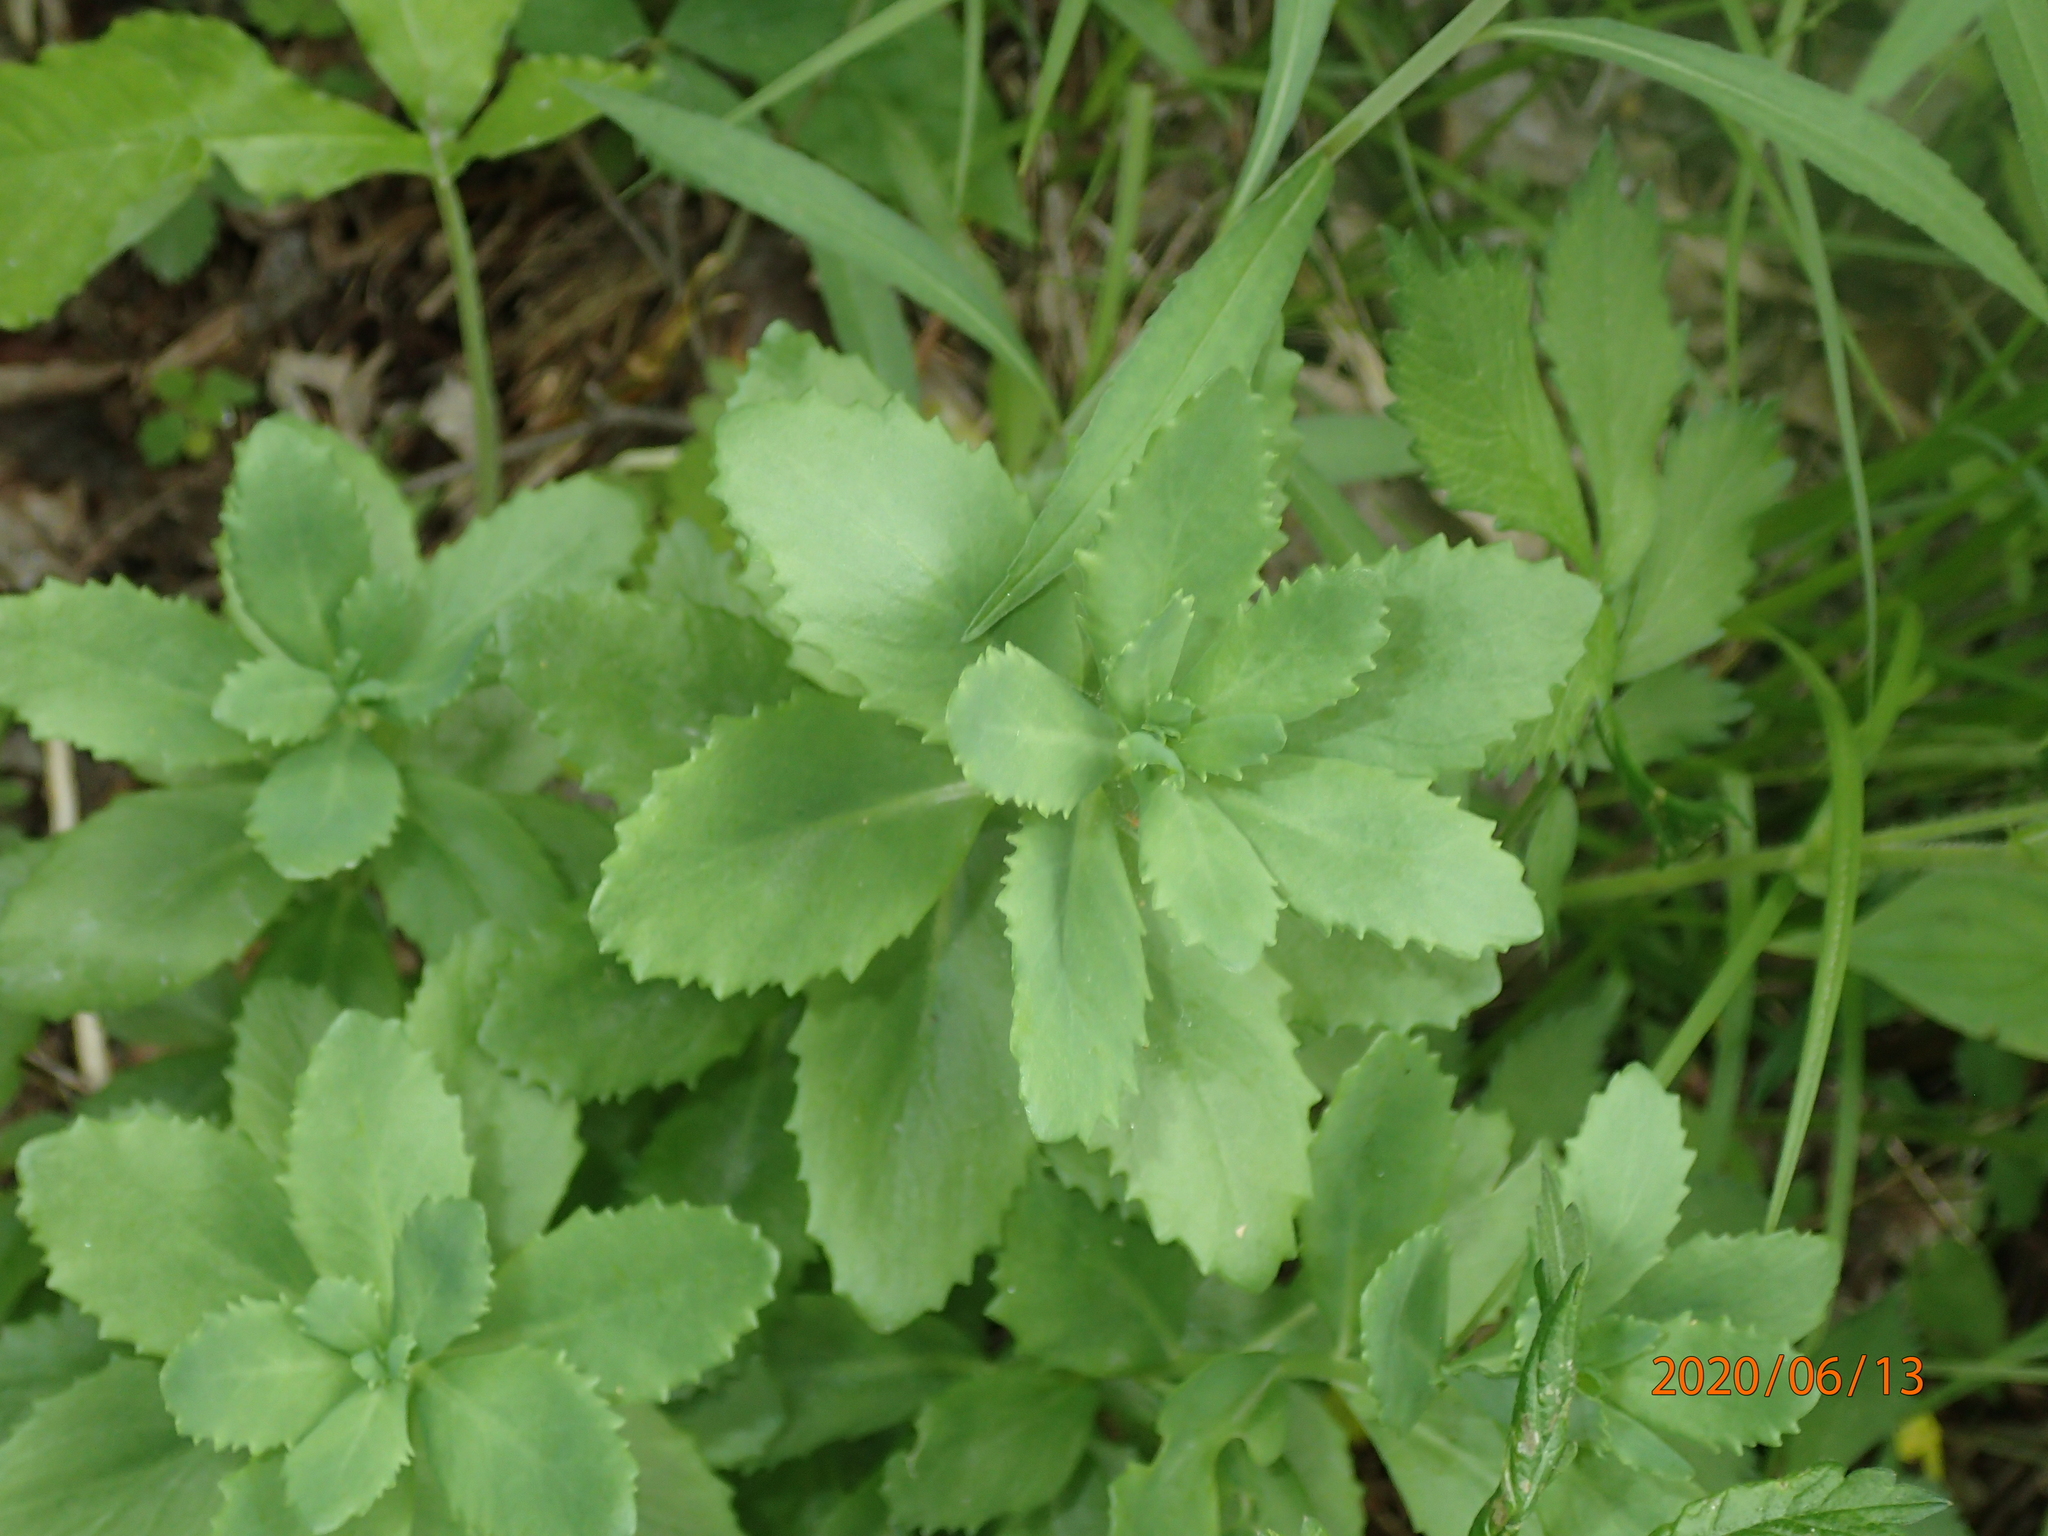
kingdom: Plantae
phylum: Tracheophyta
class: Magnoliopsida
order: Saxifragales
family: Crassulaceae
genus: Hylotelephium
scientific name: Hylotelephium telephium
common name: Live-forever
